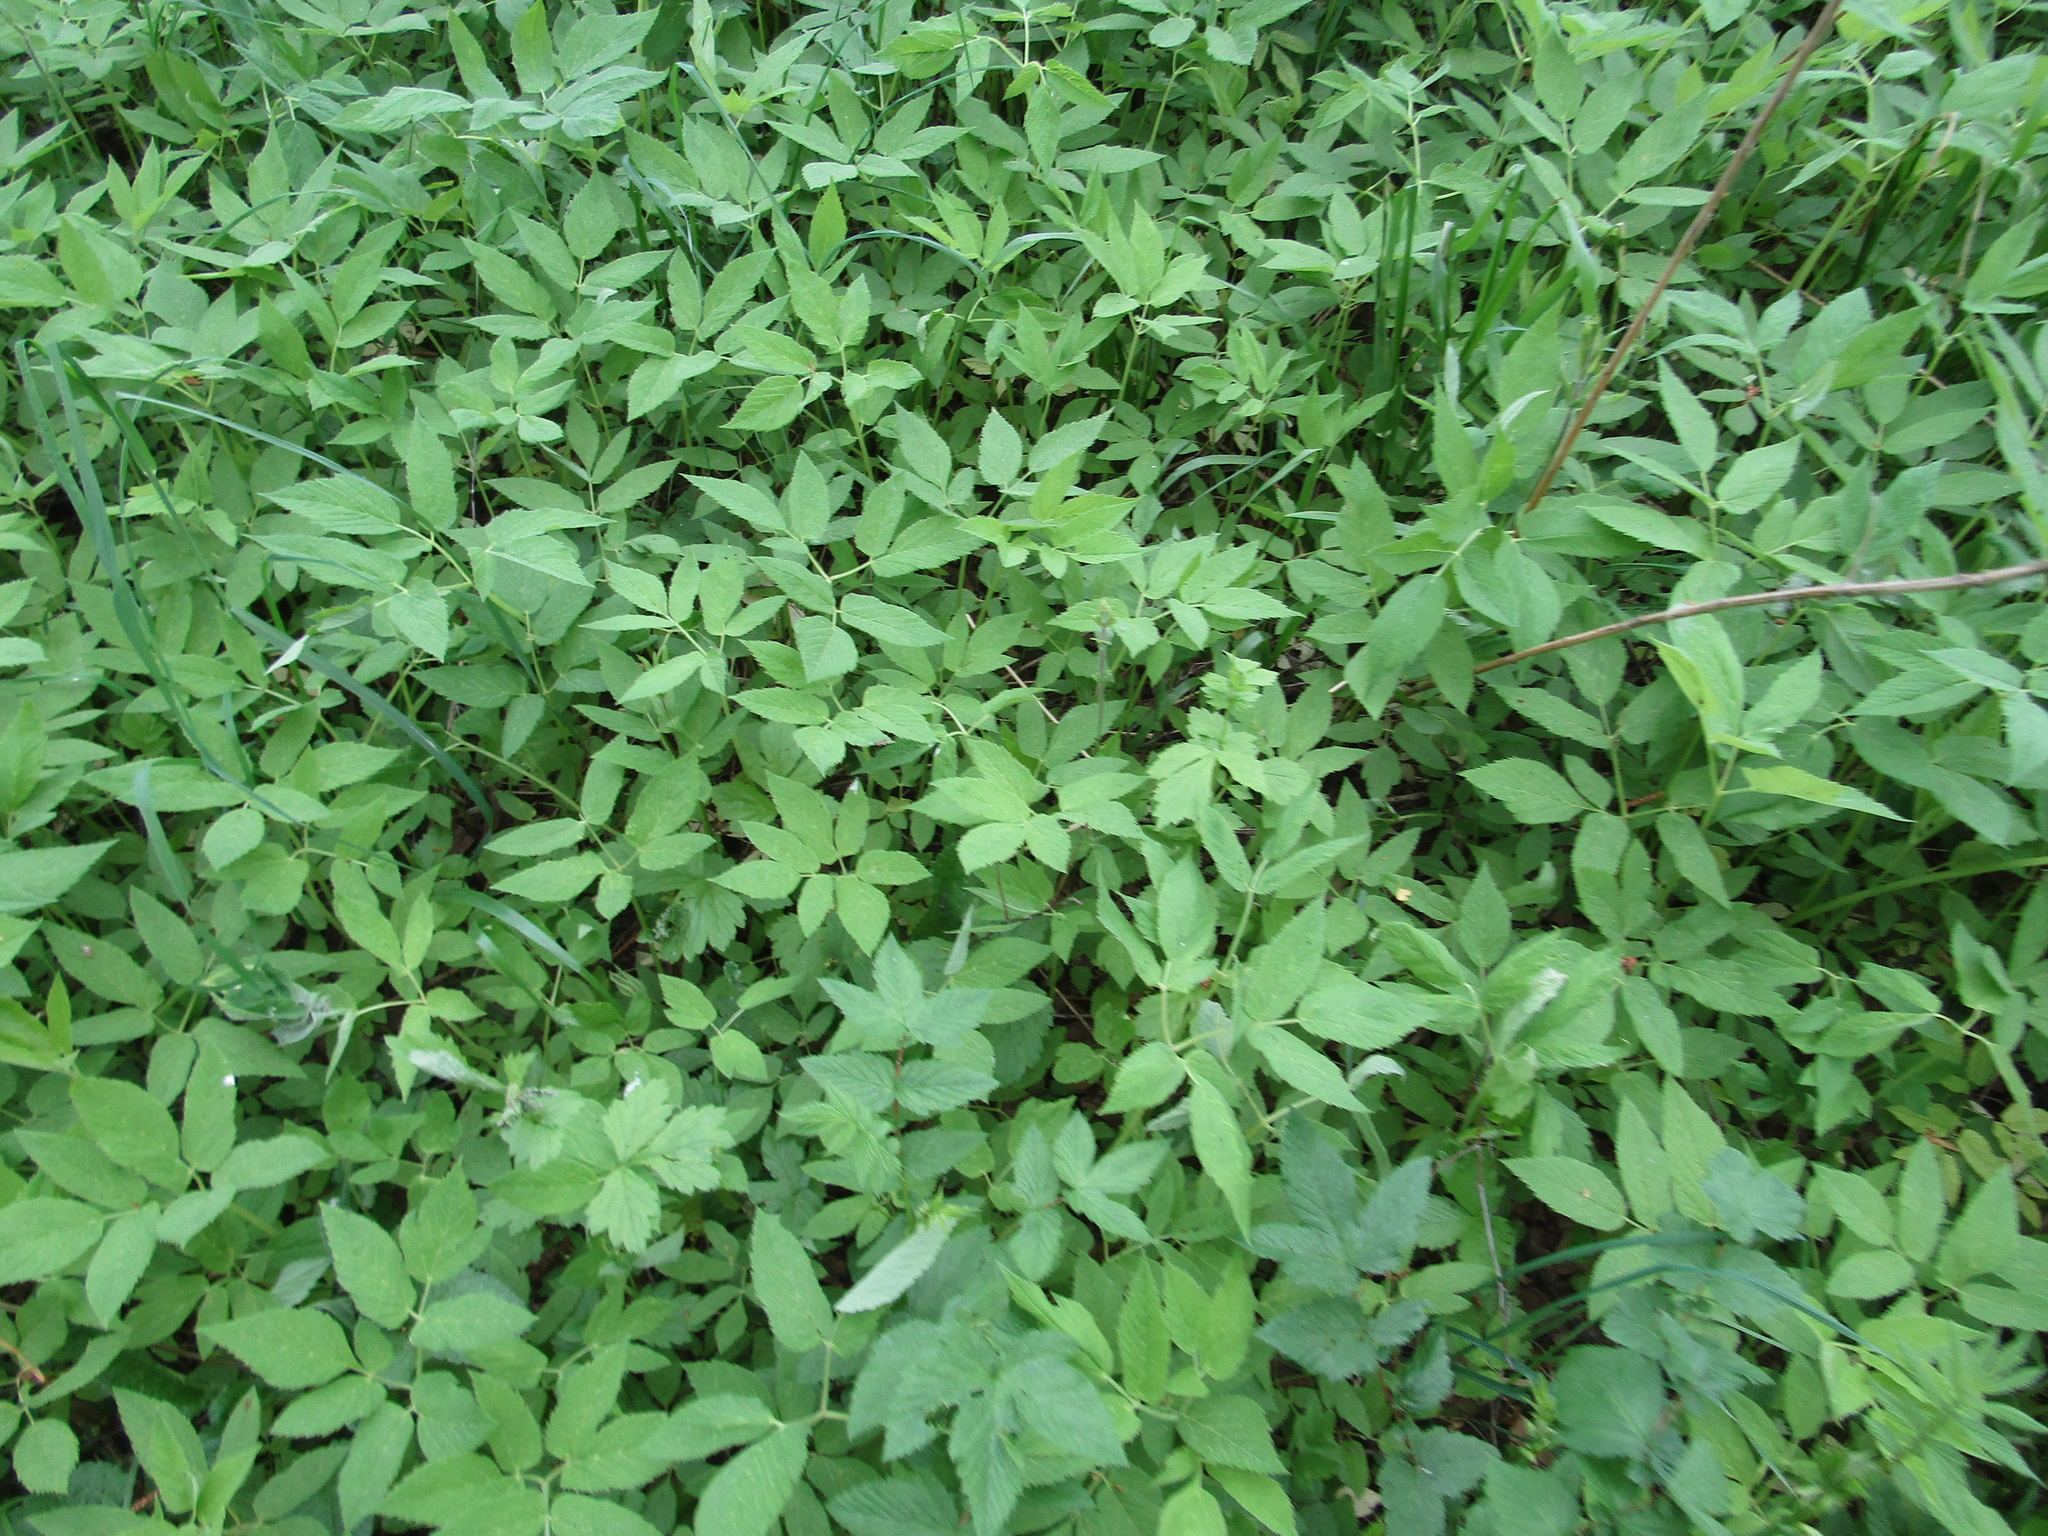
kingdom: Plantae
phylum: Tracheophyta
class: Magnoliopsida
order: Apiales
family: Apiaceae
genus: Aegopodium
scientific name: Aegopodium podagraria
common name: Ground-elder
